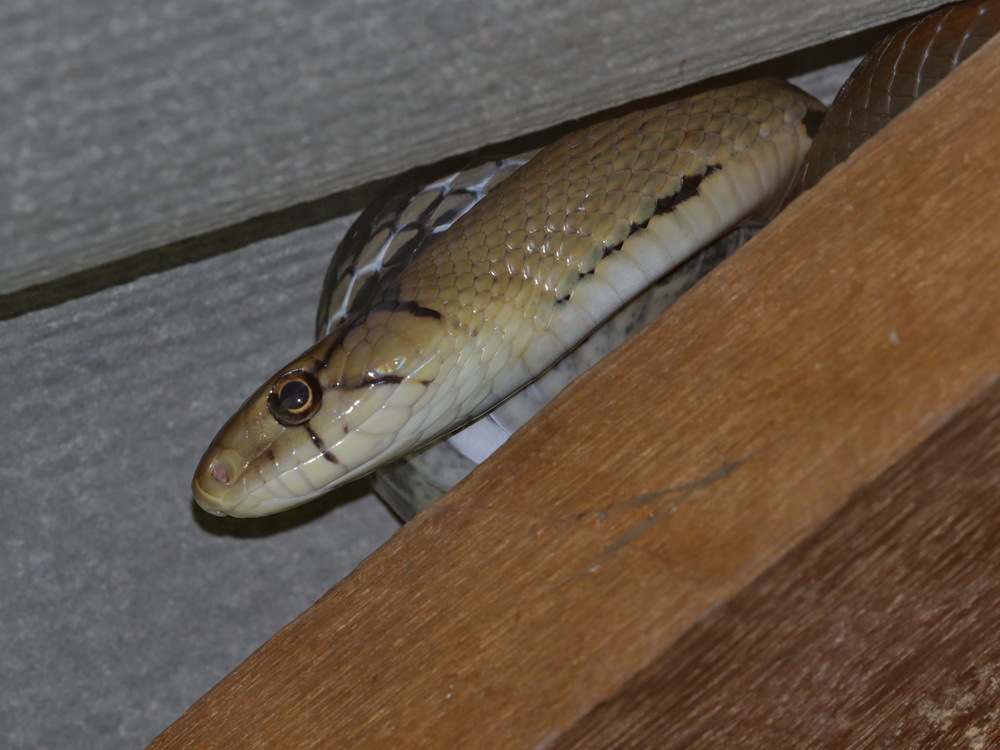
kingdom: Animalia
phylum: Chordata
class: Squamata
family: Colubridae
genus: Coelognathus
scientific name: Coelognathus radiatus
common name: Copperhead rat snake
